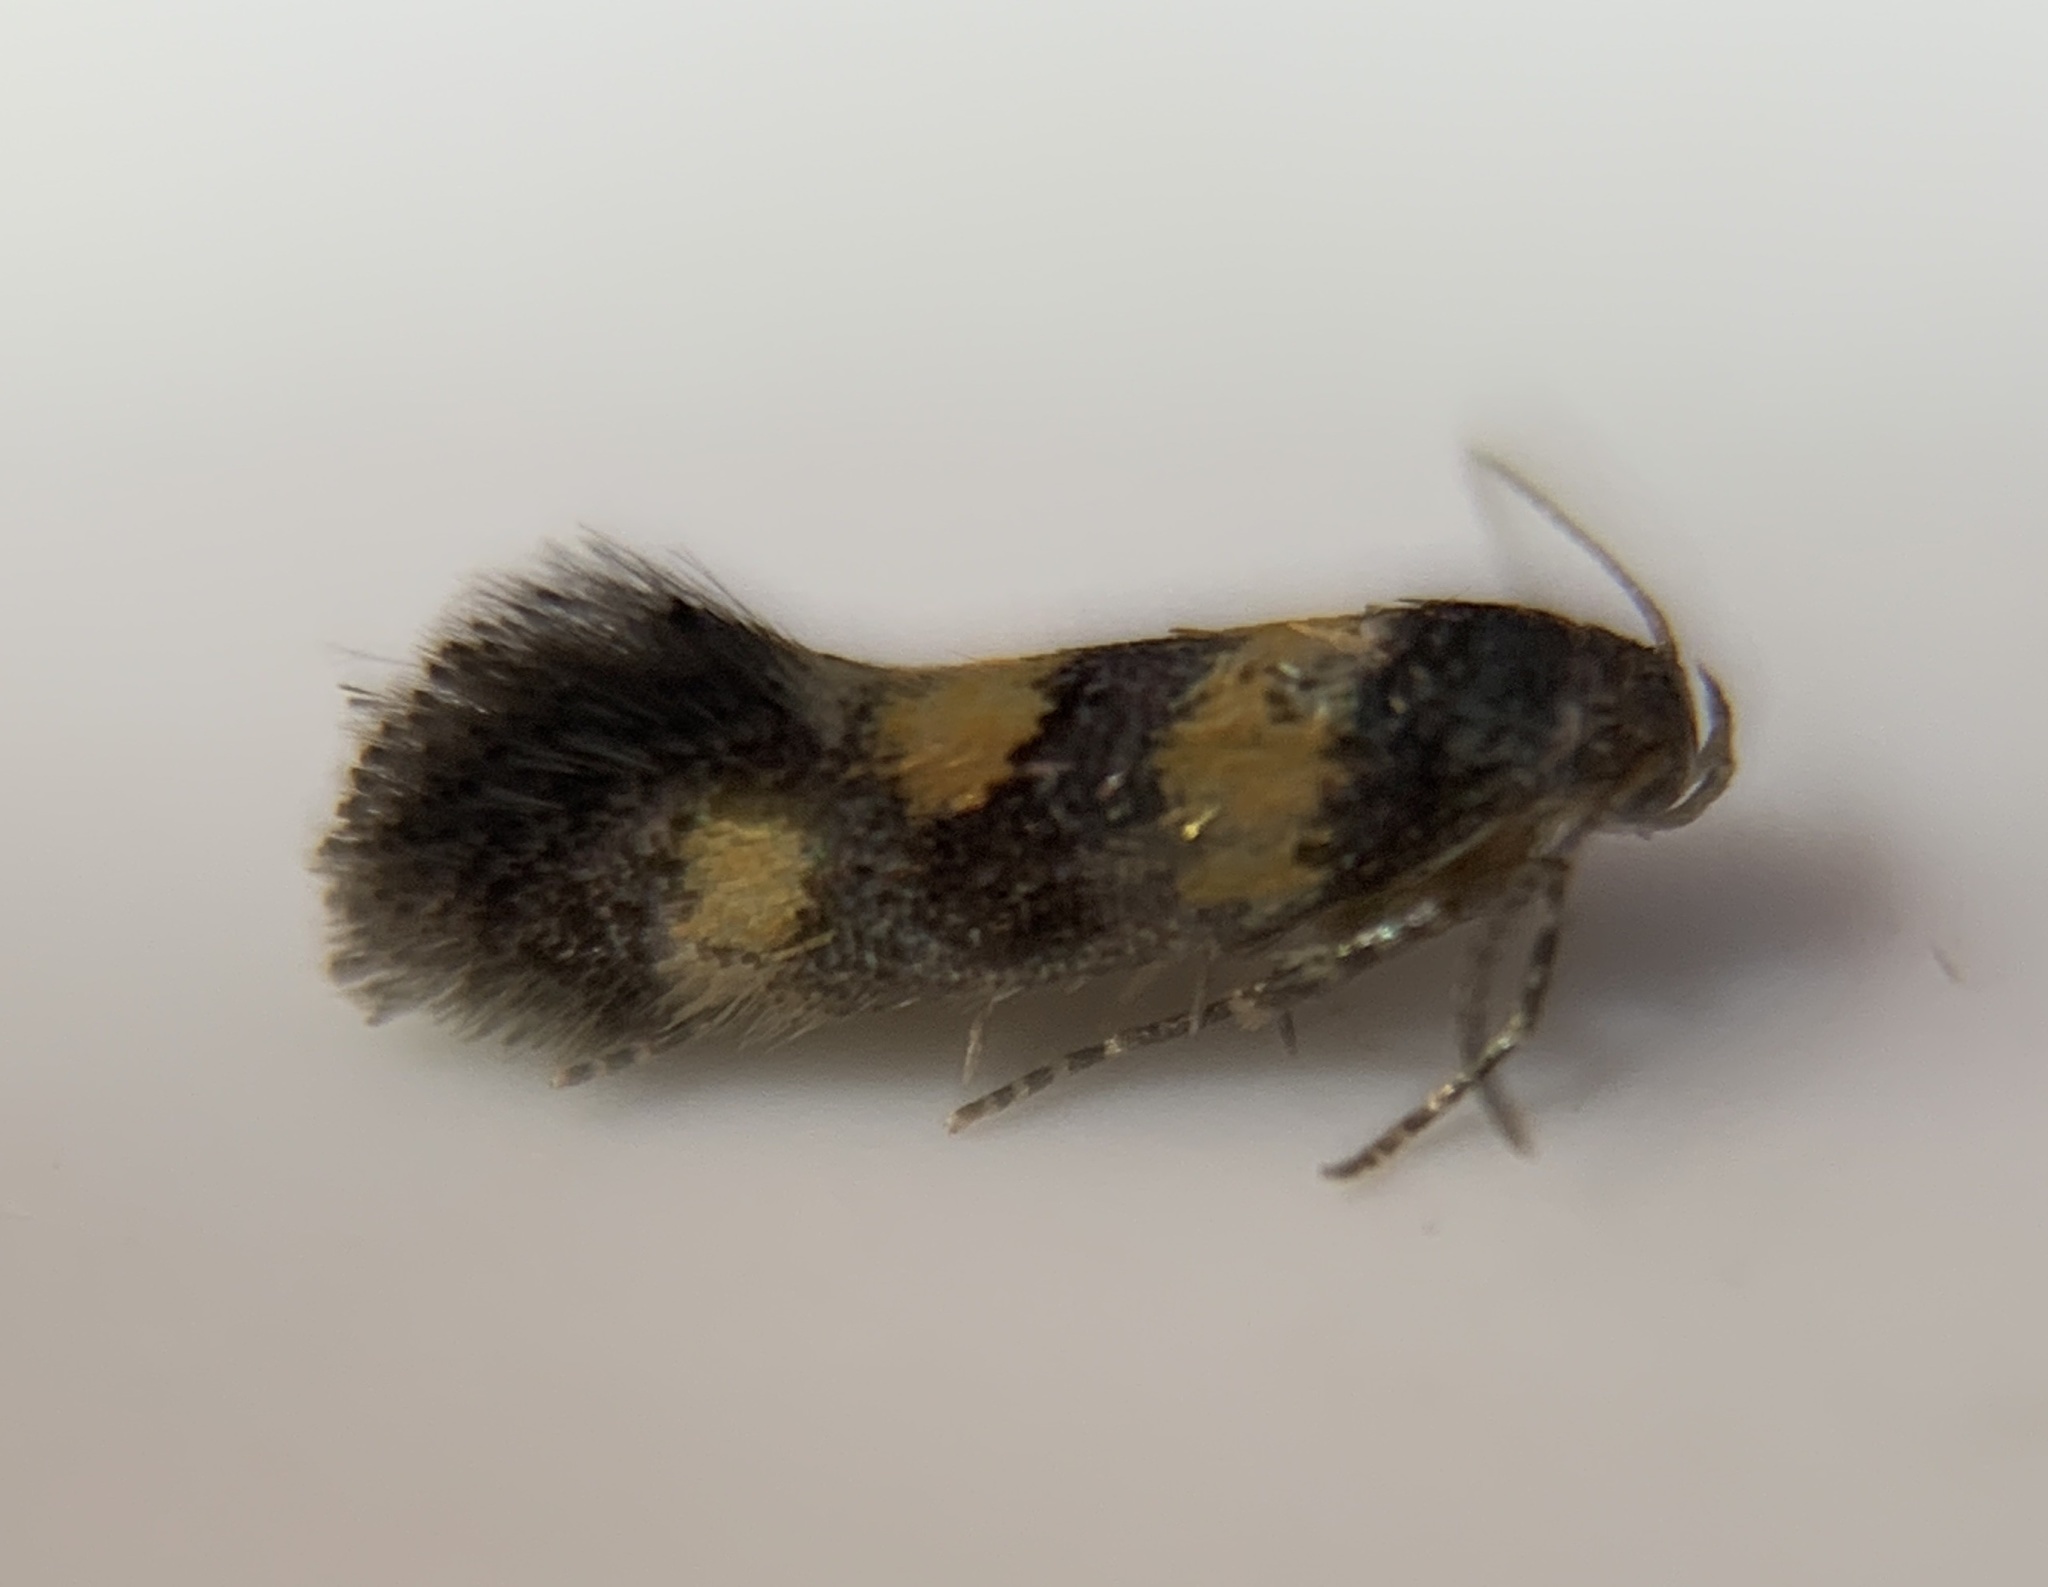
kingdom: Animalia
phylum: Arthropoda
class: Insecta
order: Lepidoptera
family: Gelechiidae
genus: Chrysoesthia
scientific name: Chrysoesthia sexguttella
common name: Moth
